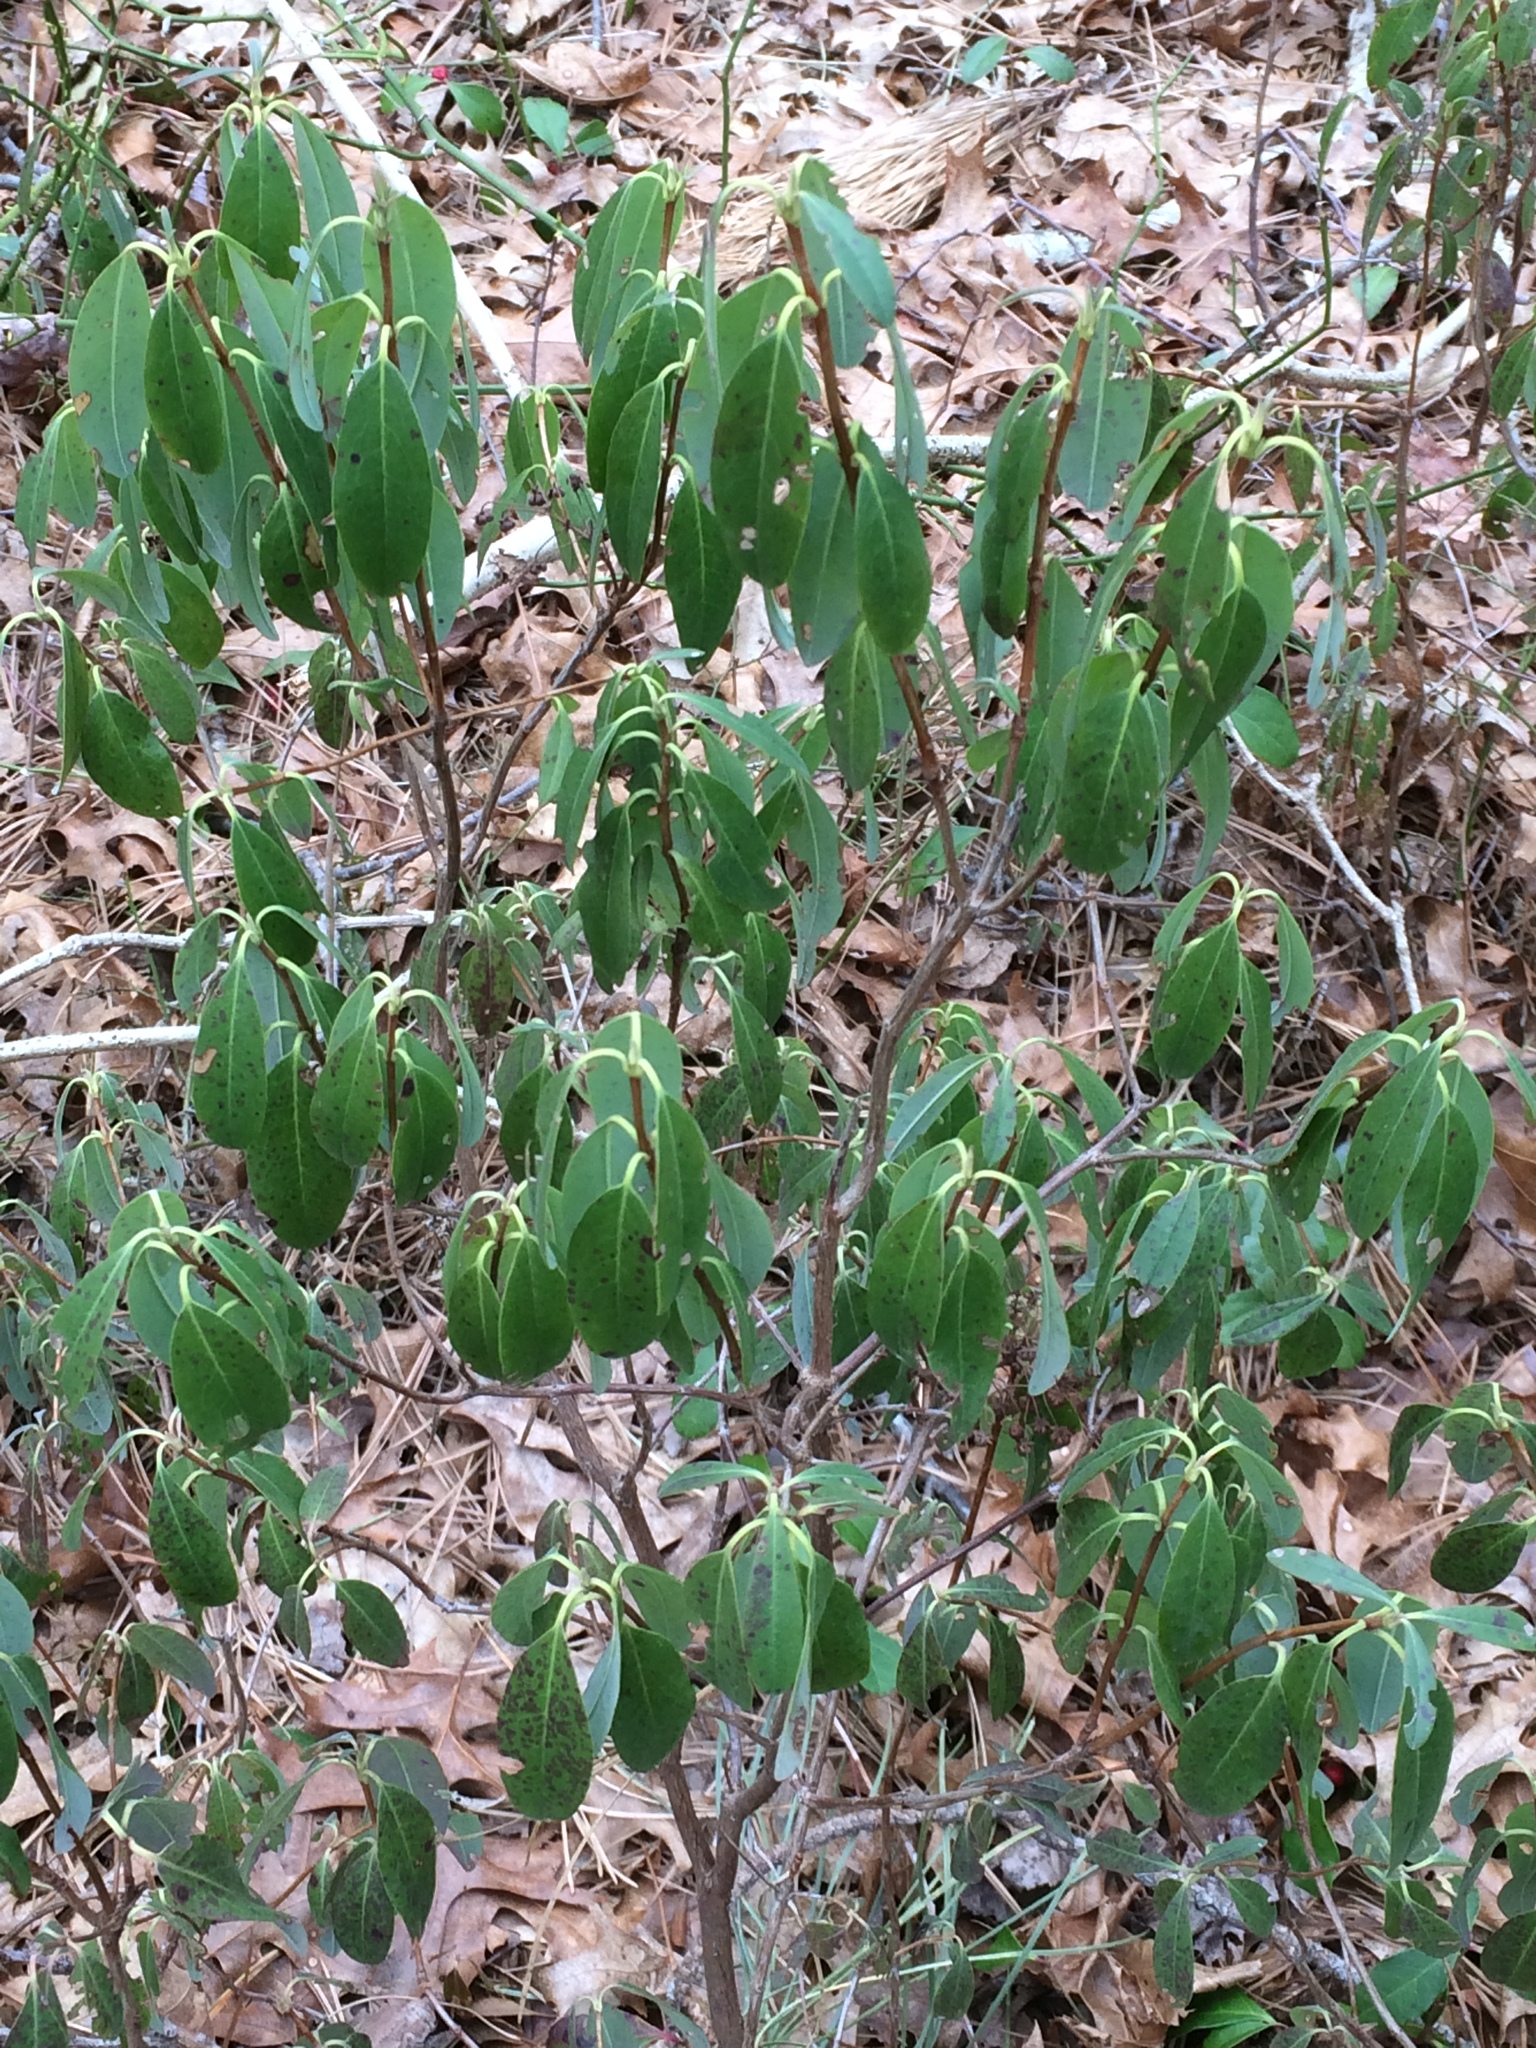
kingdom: Plantae
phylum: Tracheophyta
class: Magnoliopsida
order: Ericales
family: Ericaceae
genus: Kalmia
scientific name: Kalmia angustifolia
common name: Sheep-laurel
